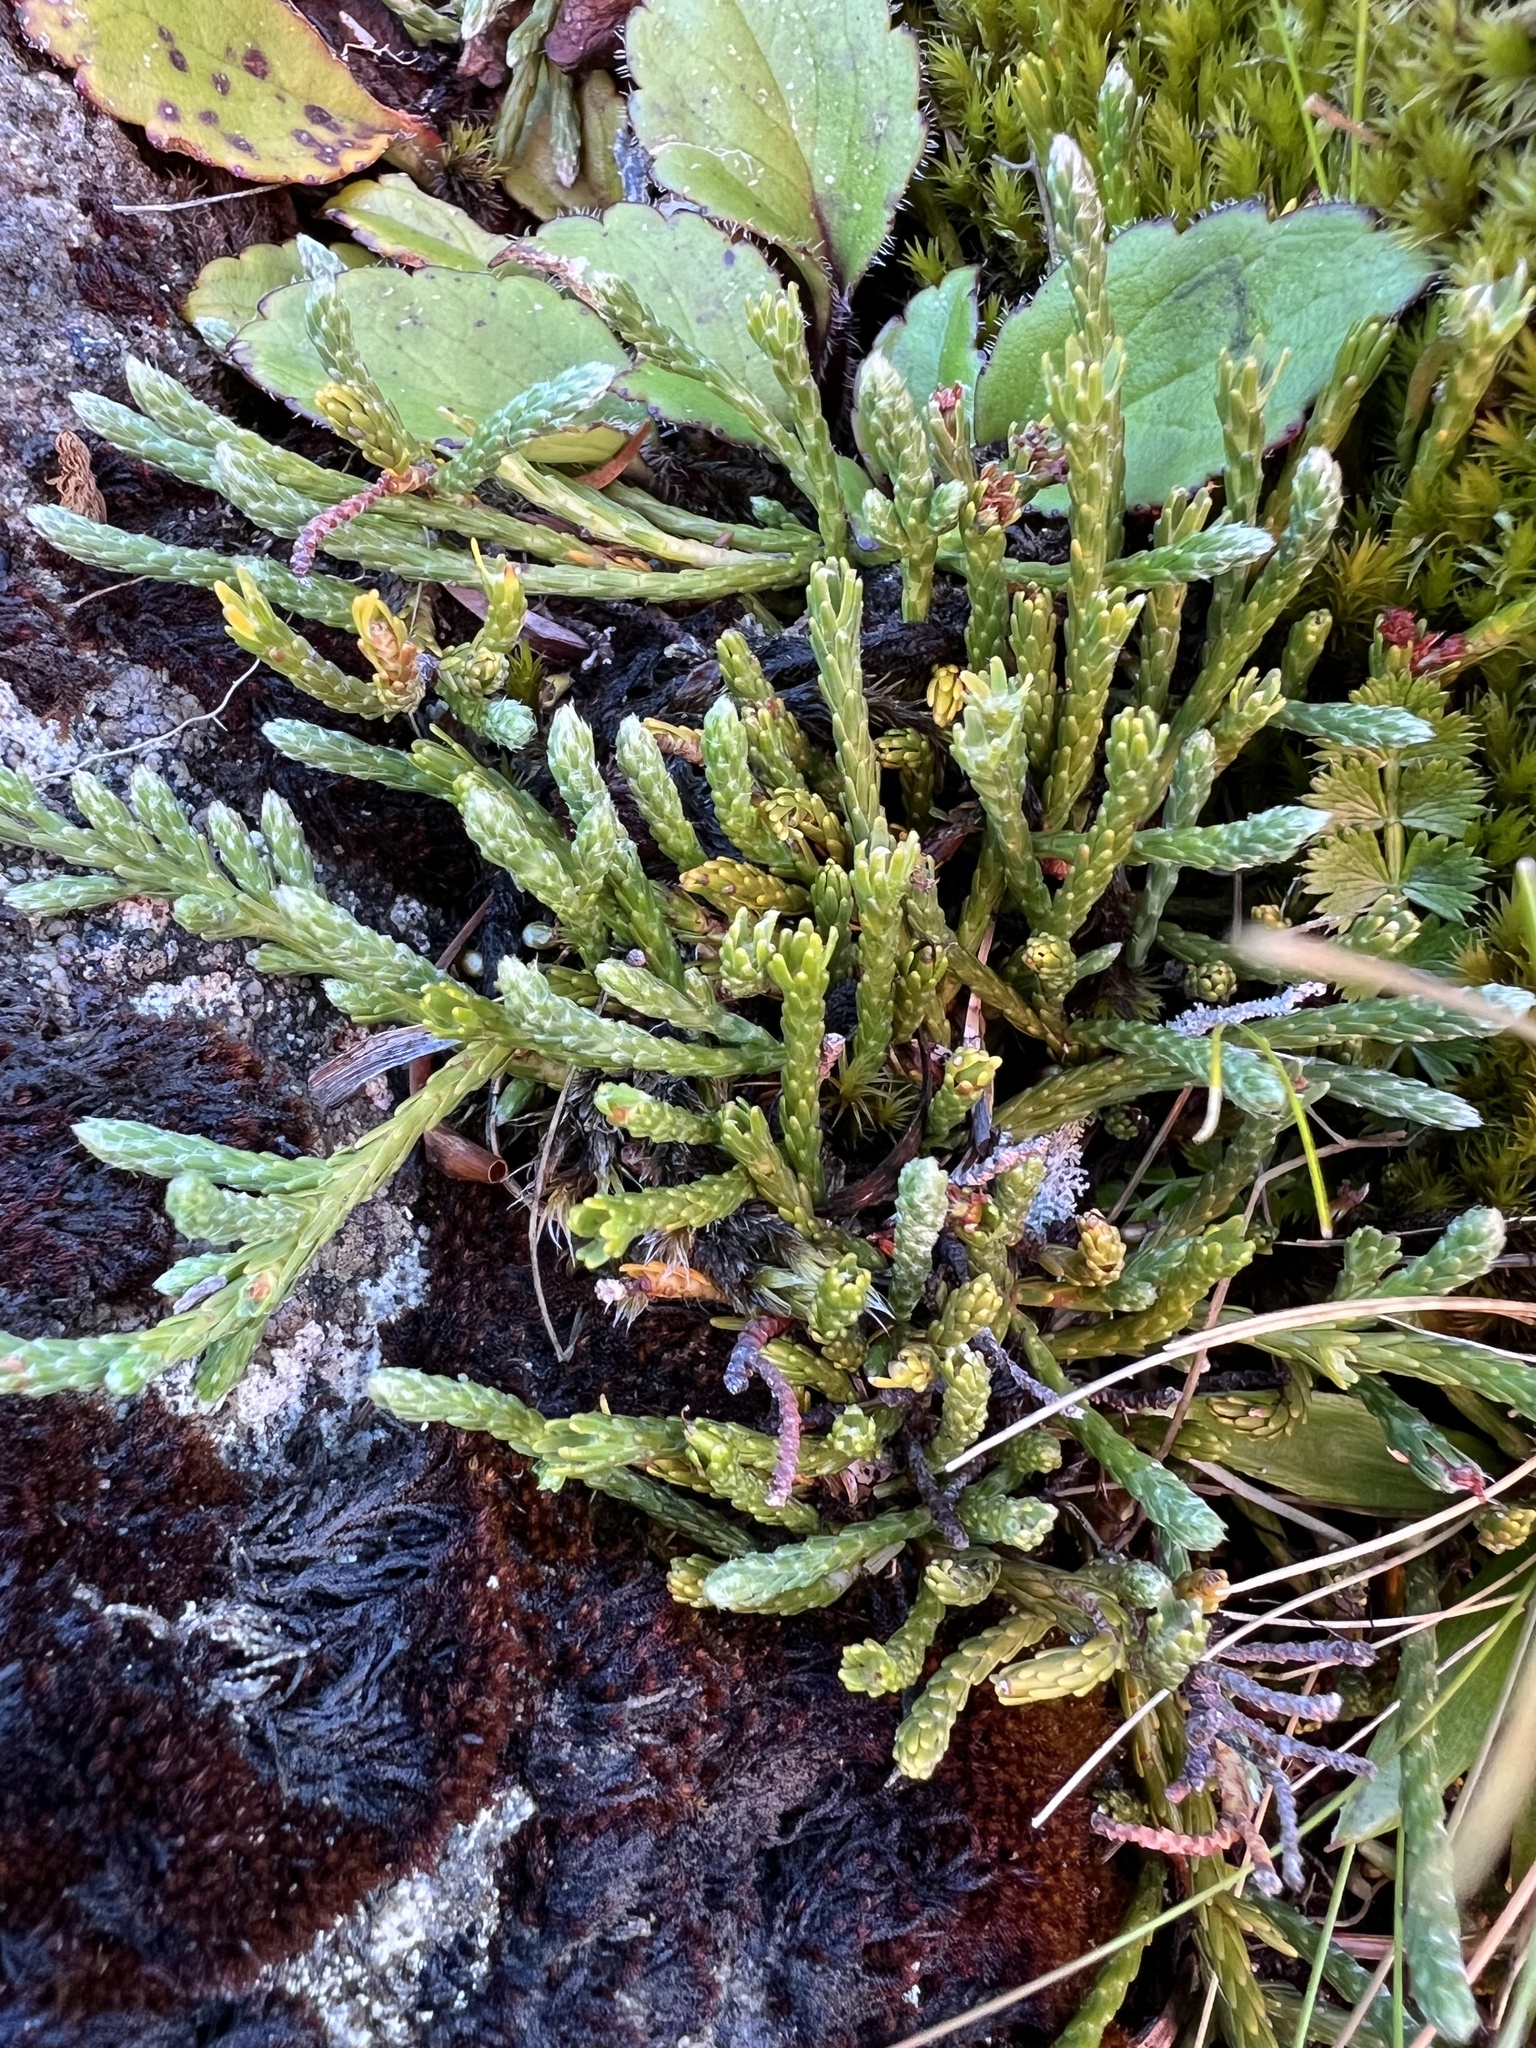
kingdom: Plantae
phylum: Tracheophyta
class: Magnoliopsida
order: Malvales
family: Thymelaeaceae
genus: Kelleria
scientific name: Kelleria dieffenbachii
